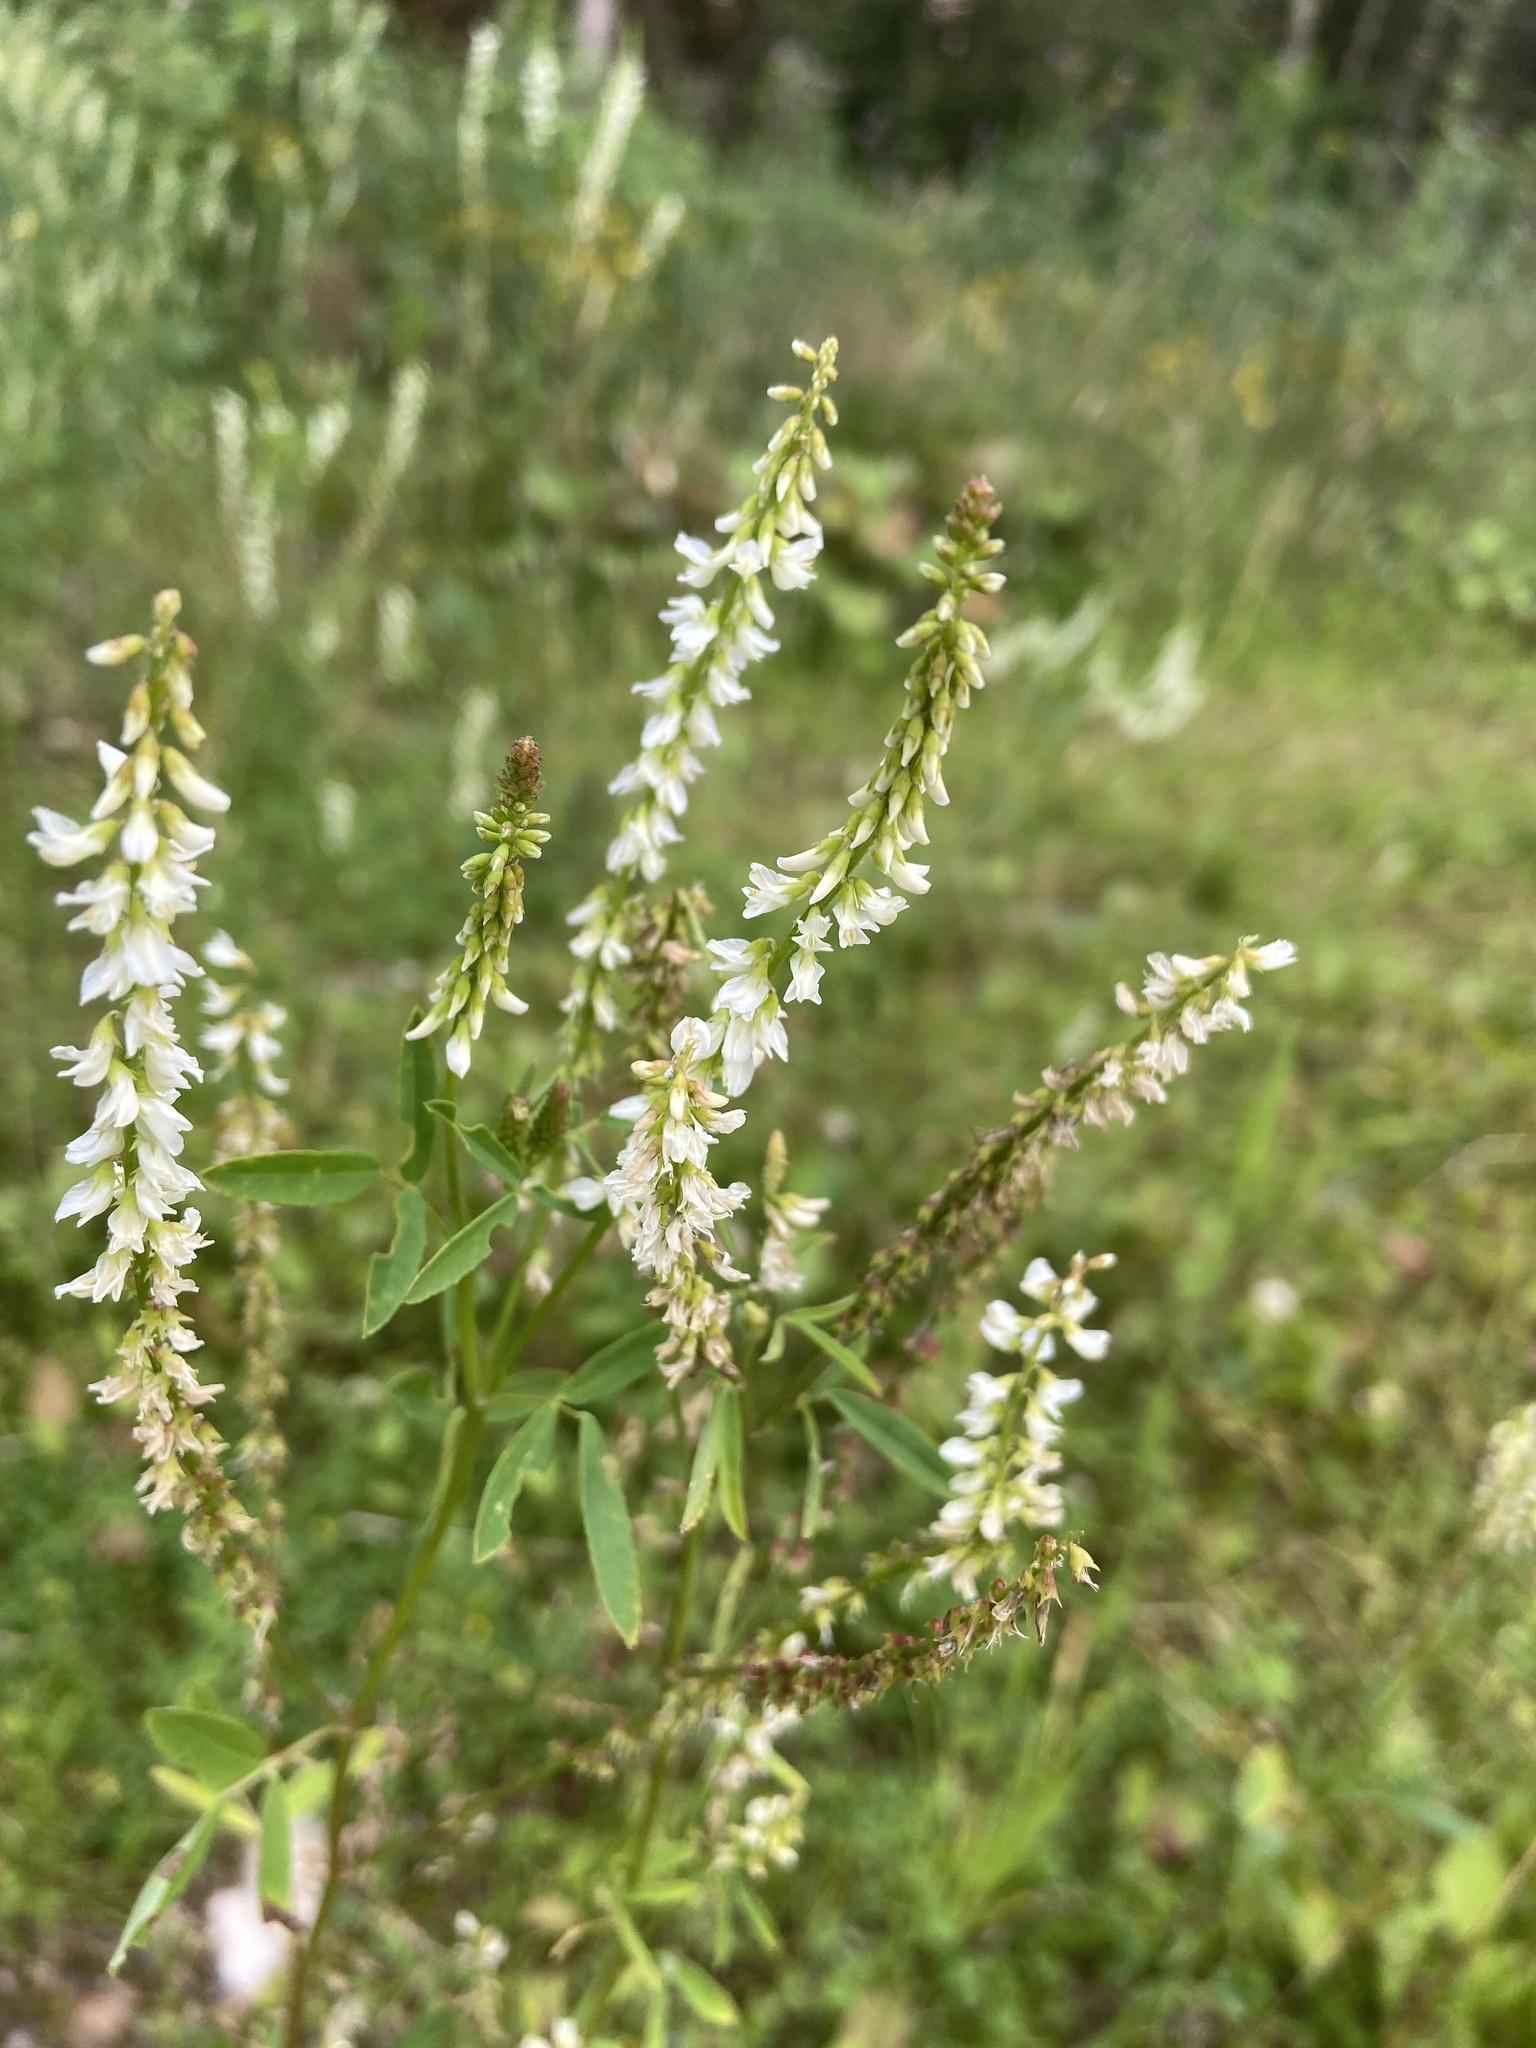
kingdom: Plantae
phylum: Tracheophyta
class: Magnoliopsida
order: Fabales
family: Fabaceae
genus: Melilotus
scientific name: Melilotus albus
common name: White melilot
